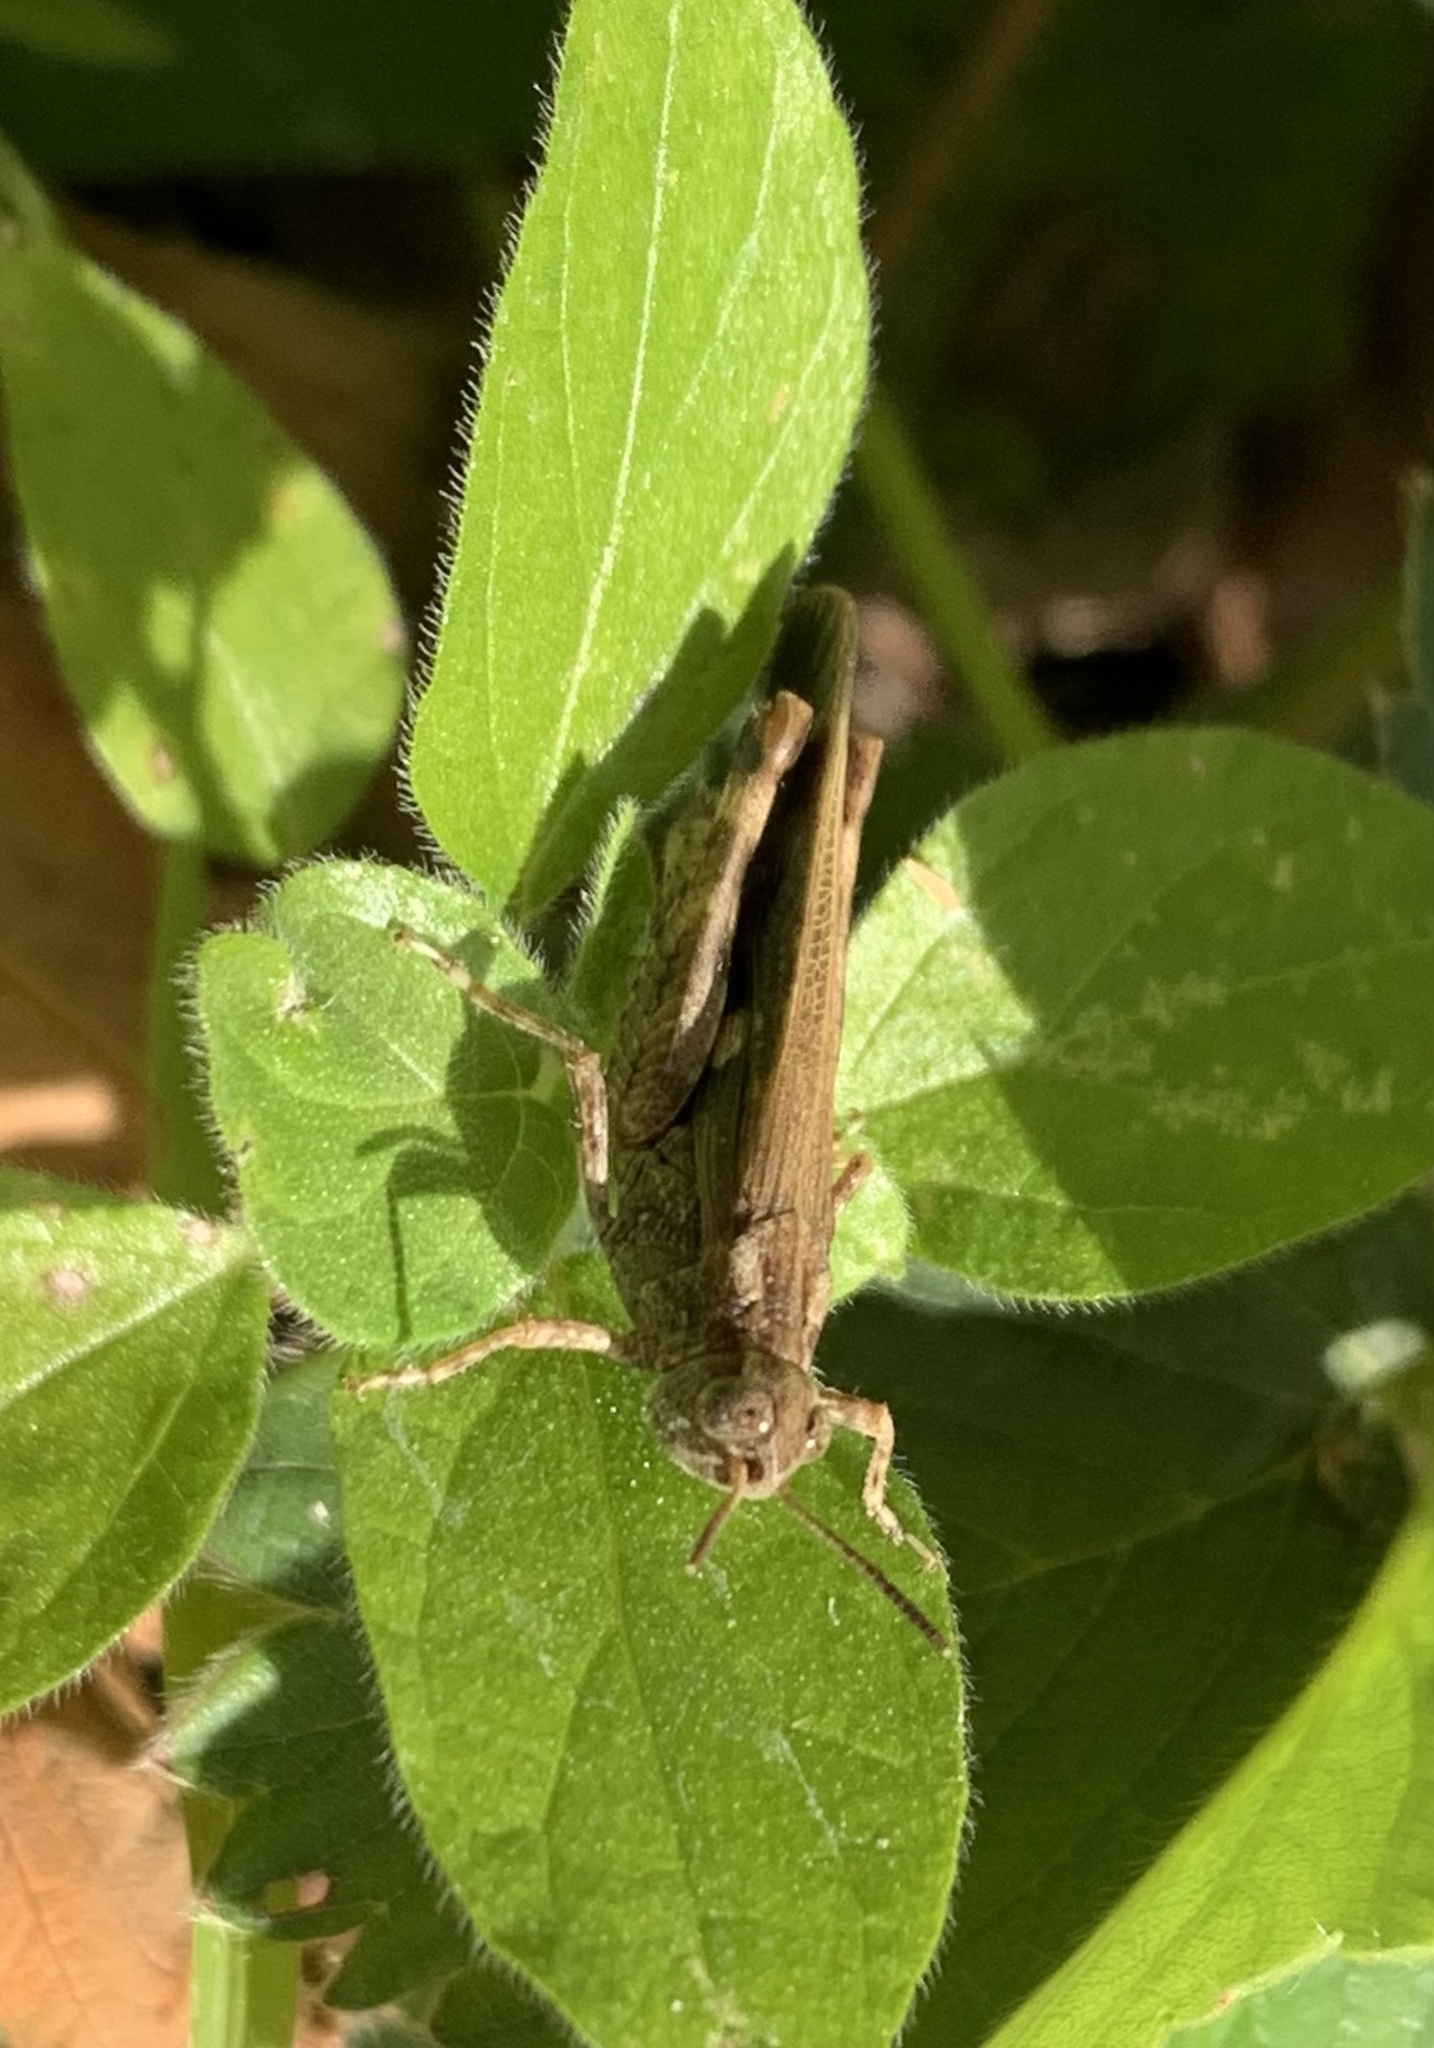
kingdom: Animalia
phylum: Arthropoda
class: Insecta
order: Orthoptera
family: Acrididae
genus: Aiolopus
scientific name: Aiolopus strepens
